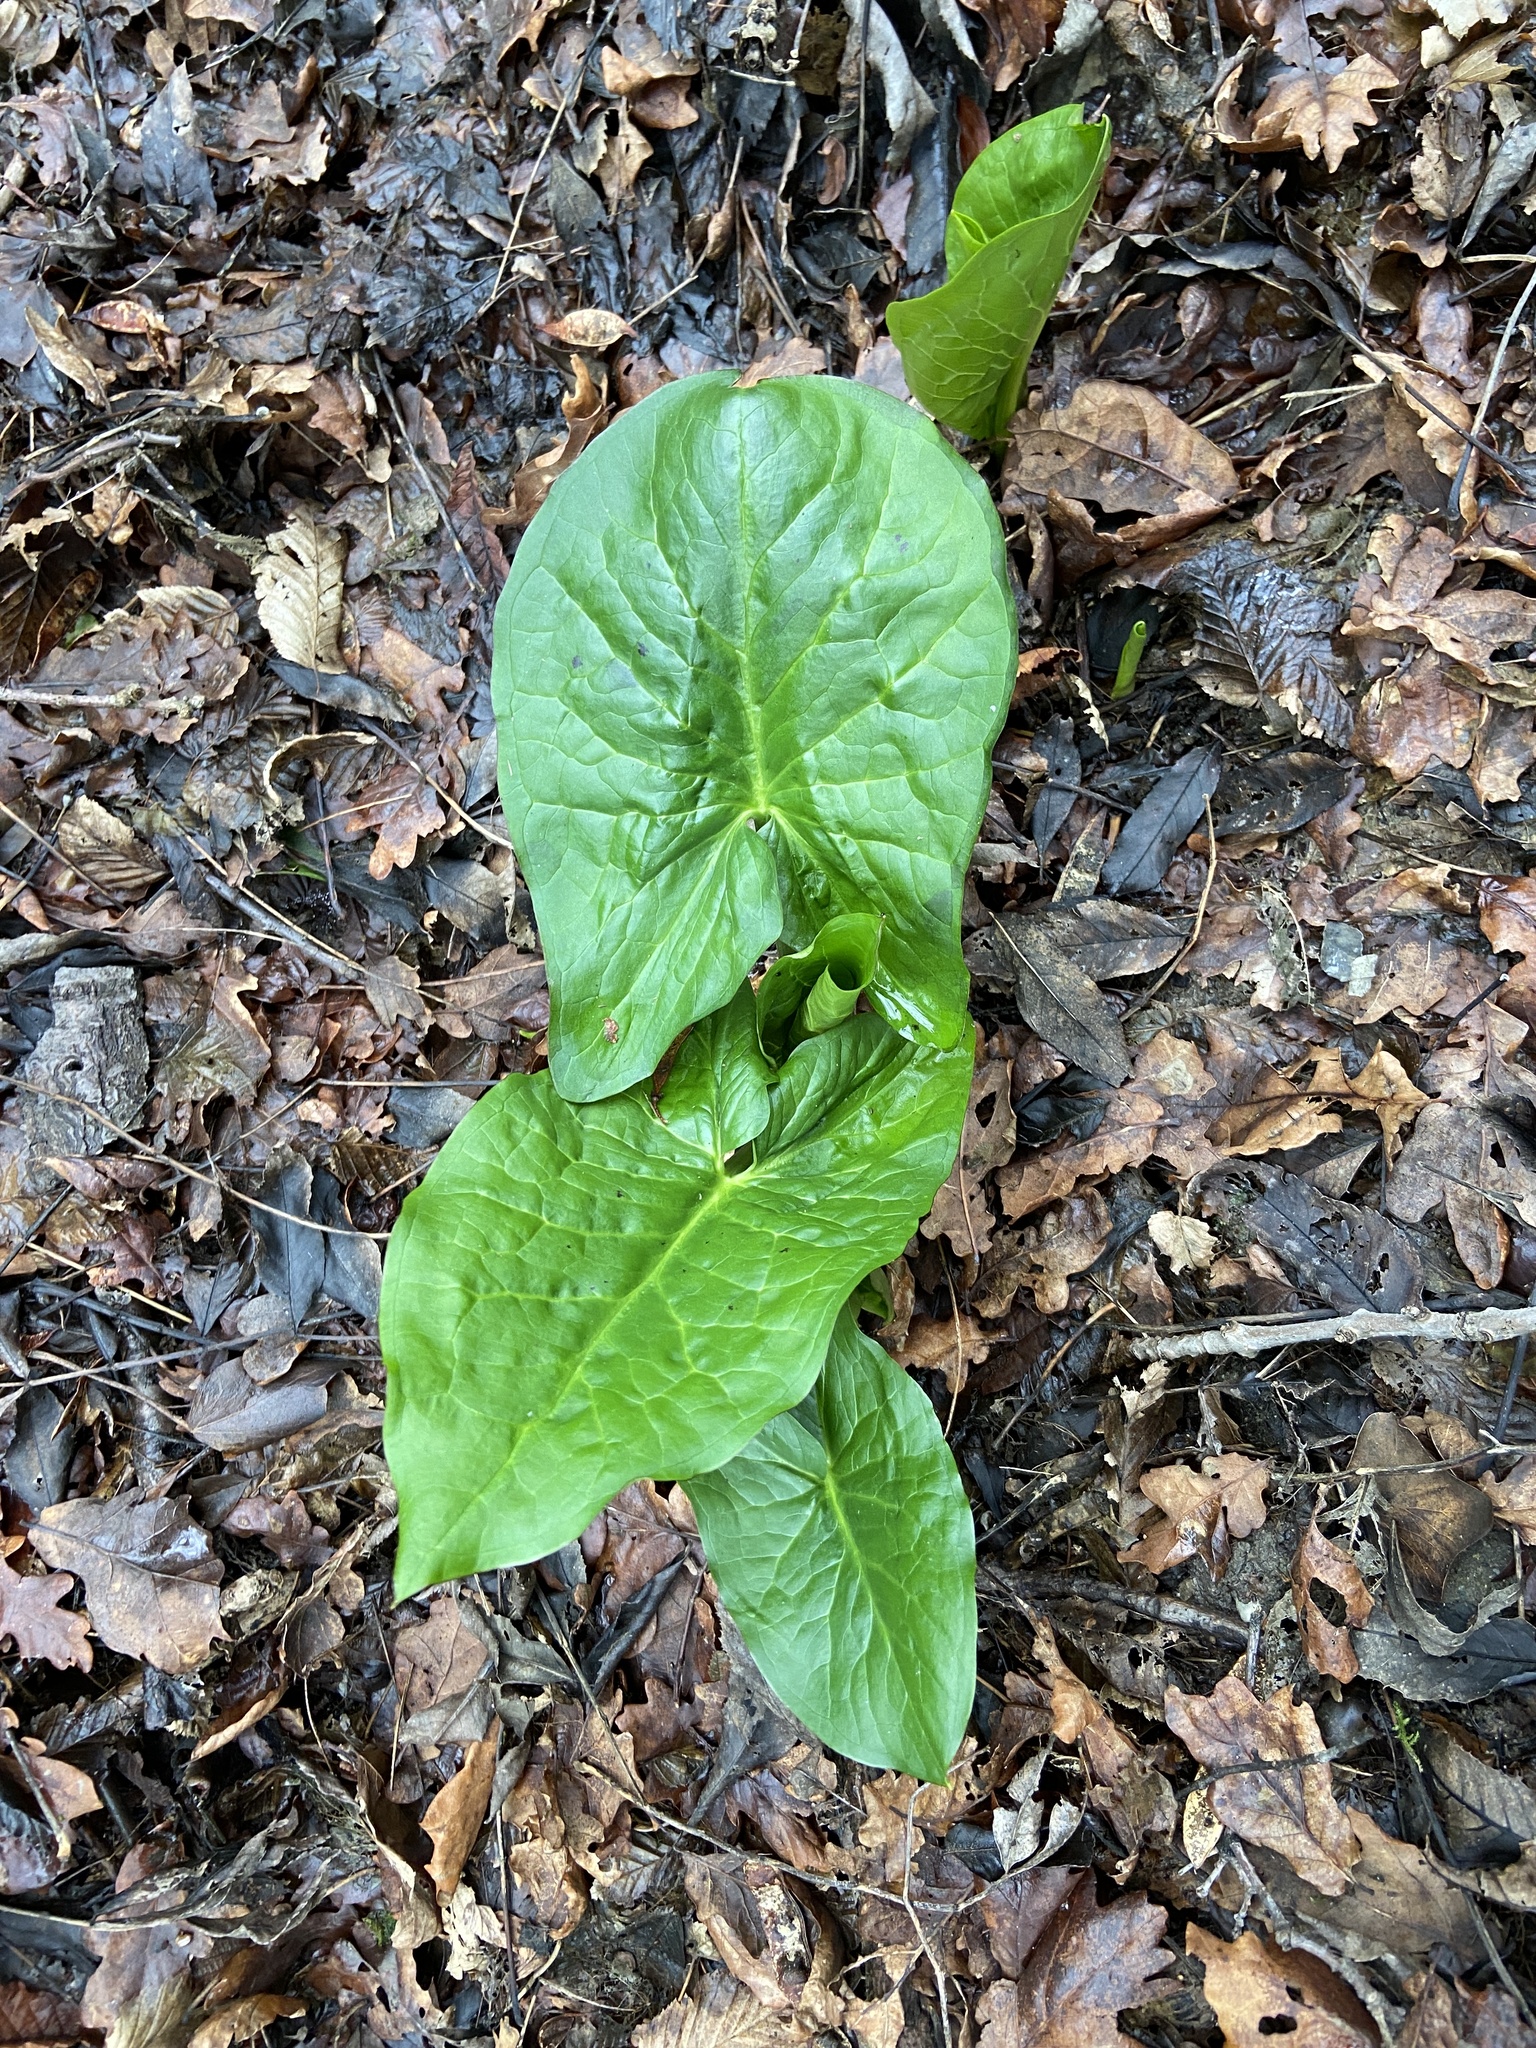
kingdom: Plantae
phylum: Tracheophyta
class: Liliopsida
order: Alismatales
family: Araceae
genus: Arum
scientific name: Arum maculatum
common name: Lords-and-ladies
